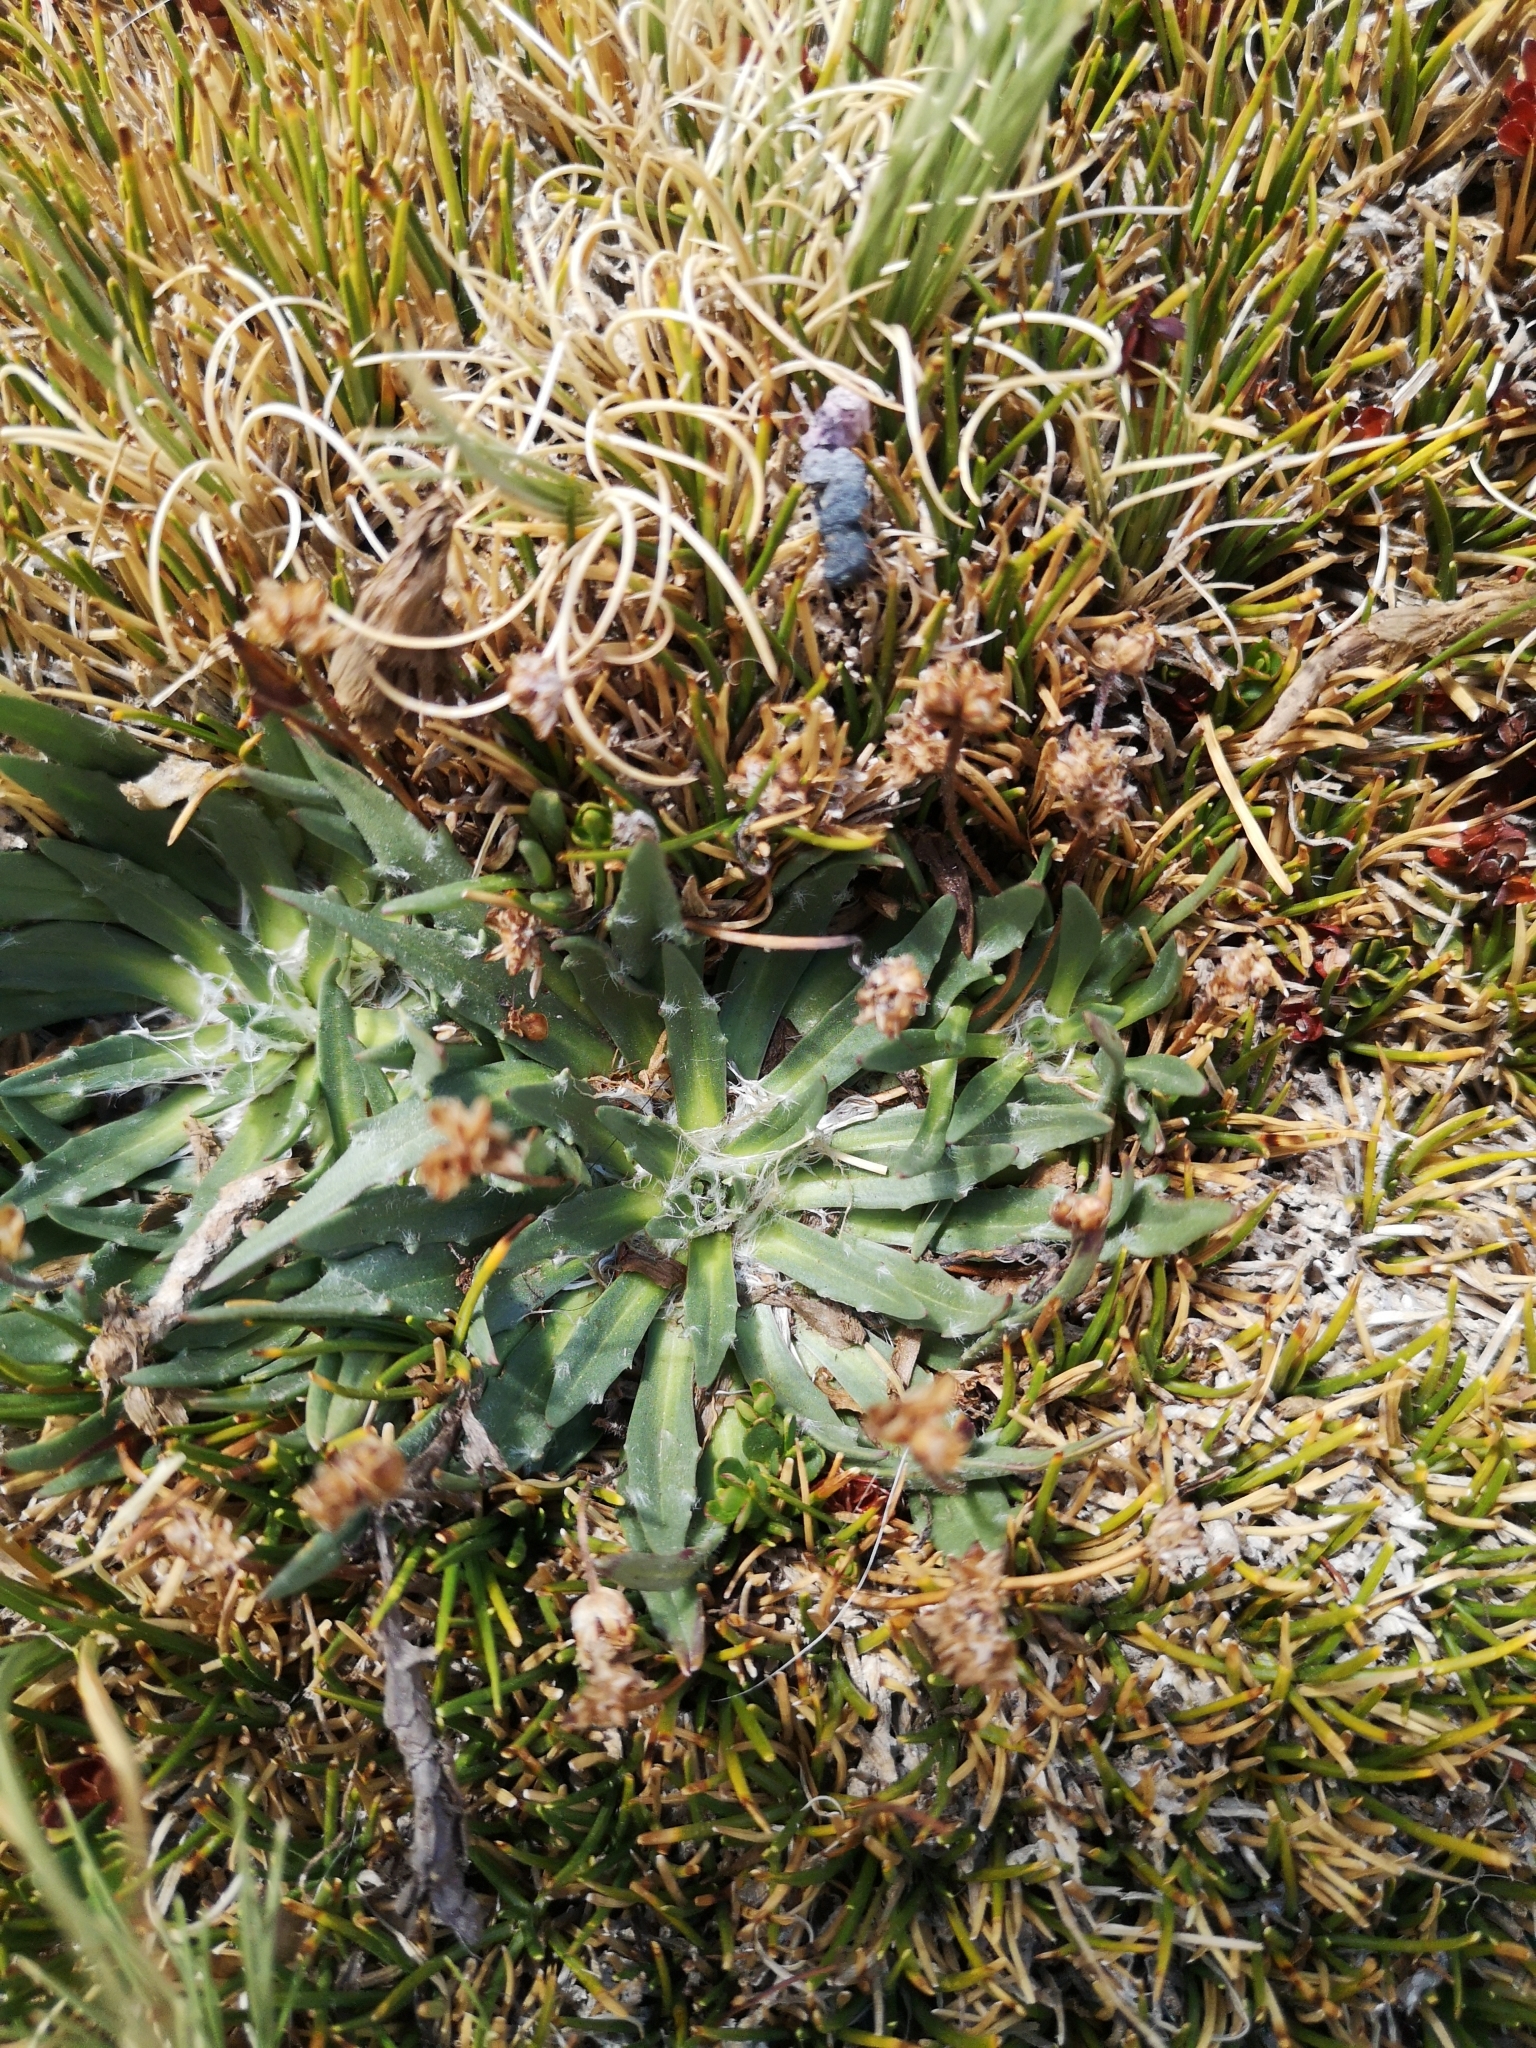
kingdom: Plantae
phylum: Tracheophyta
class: Magnoliopsida
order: Lamiales
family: Plantaginaceae
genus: Plantago
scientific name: Plantago barbata
